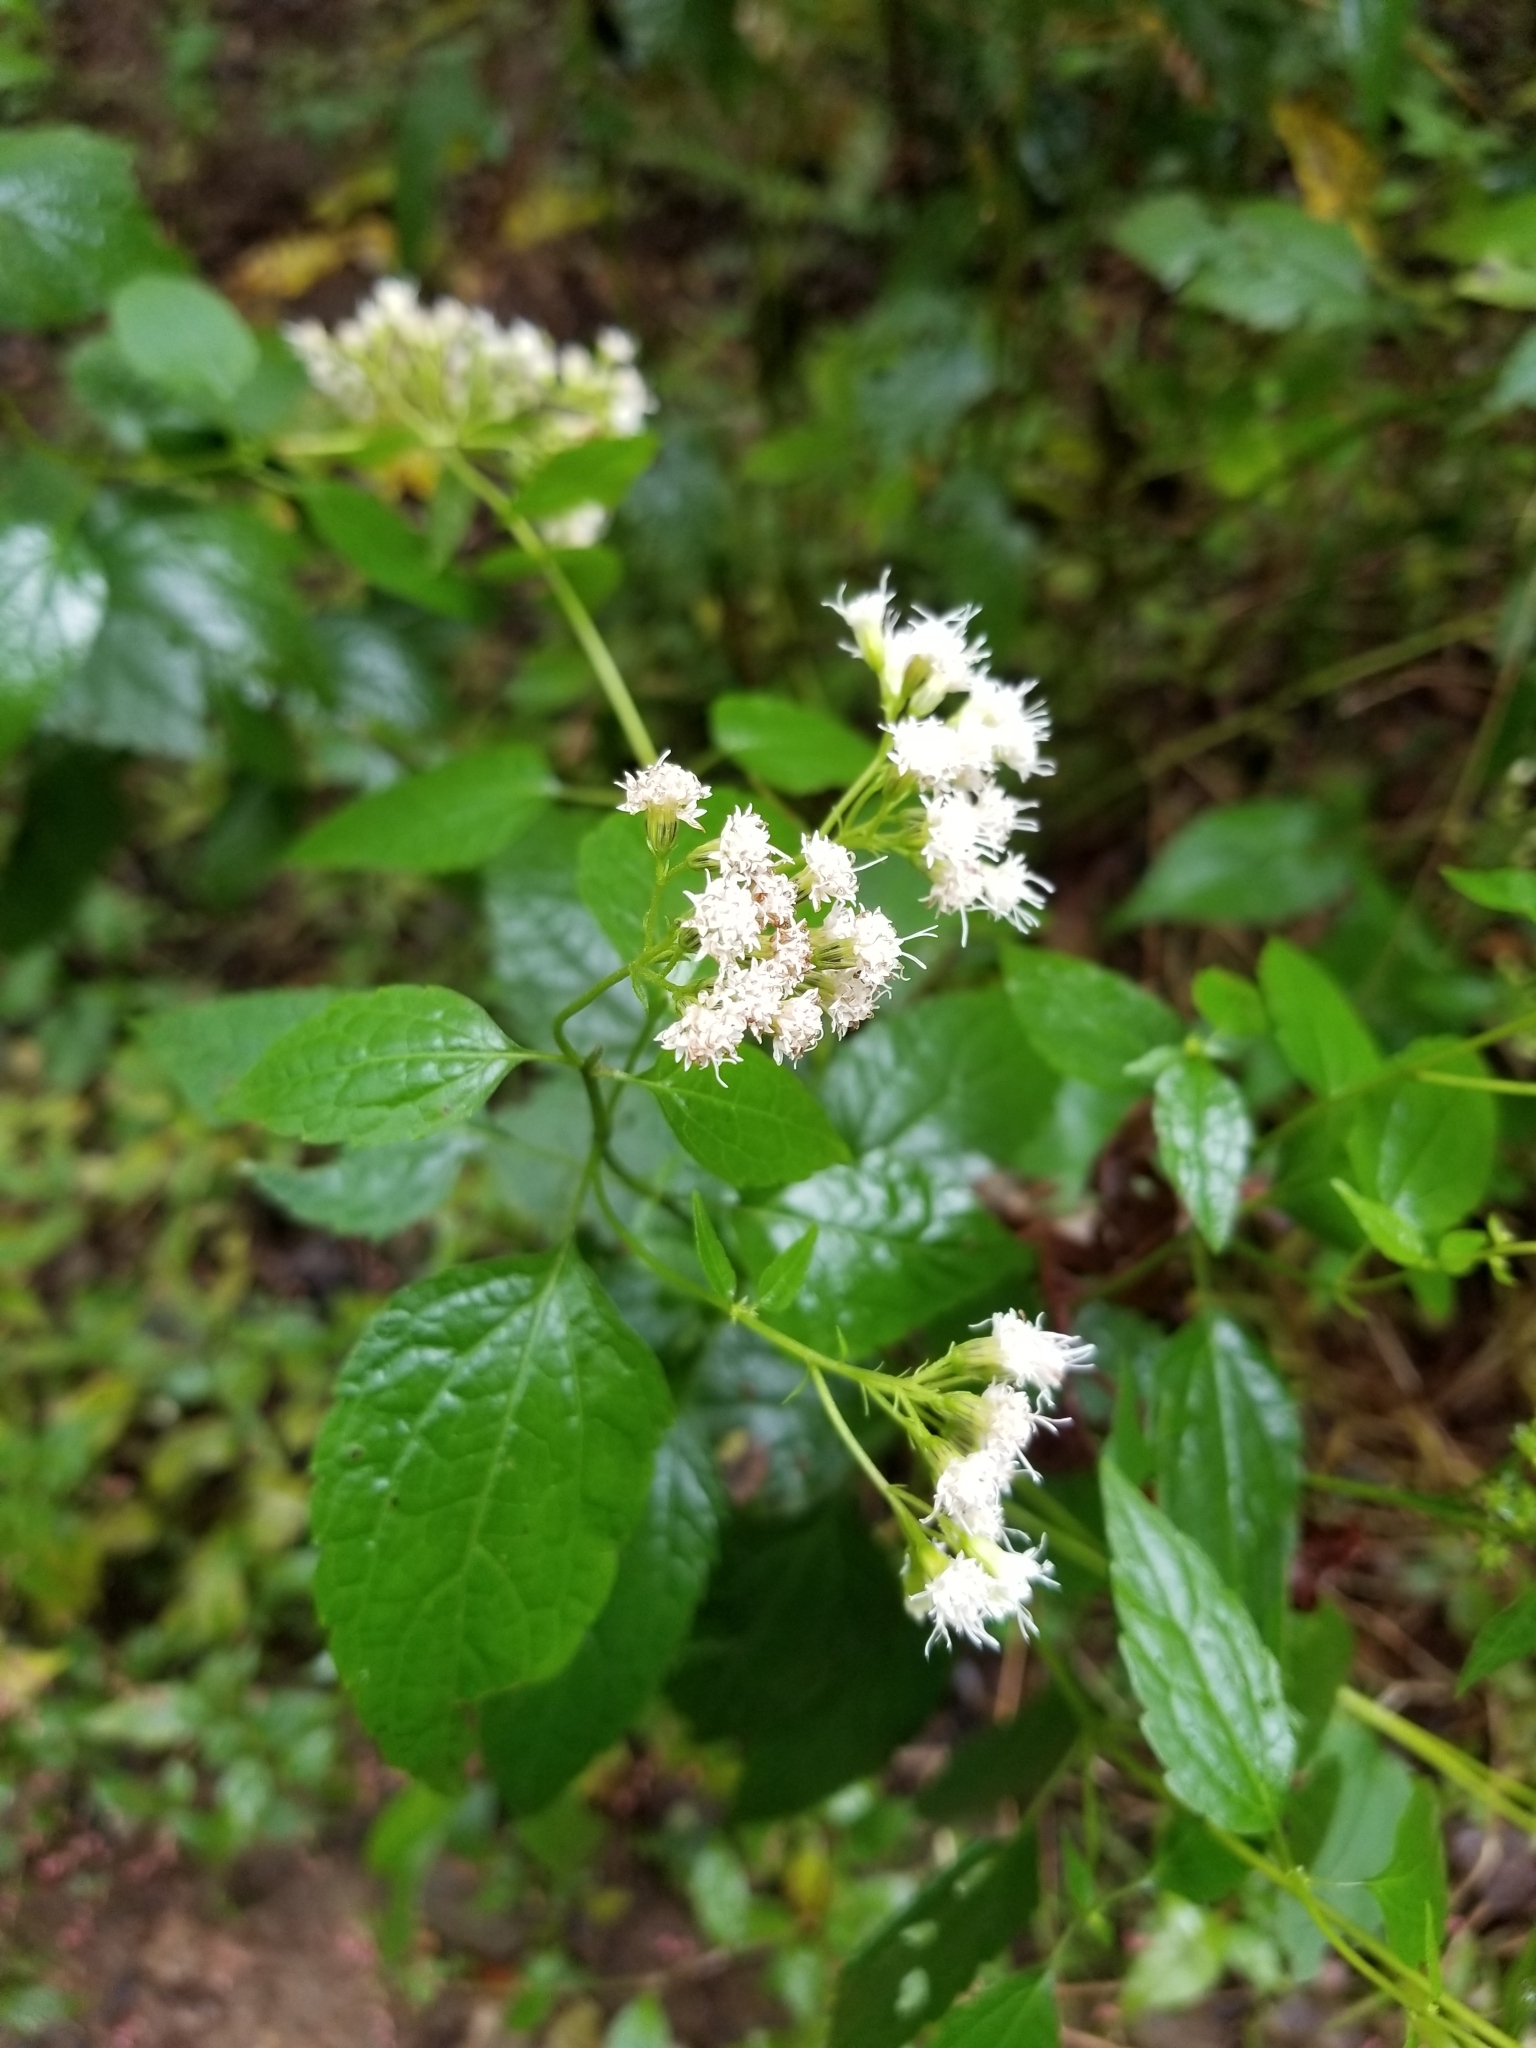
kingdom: Plantae
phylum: Tracheophyta
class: Magnoliopsida
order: Asterales
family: Asteraceae
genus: Ageratina
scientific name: Ageratina altissima
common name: White snakeroot
